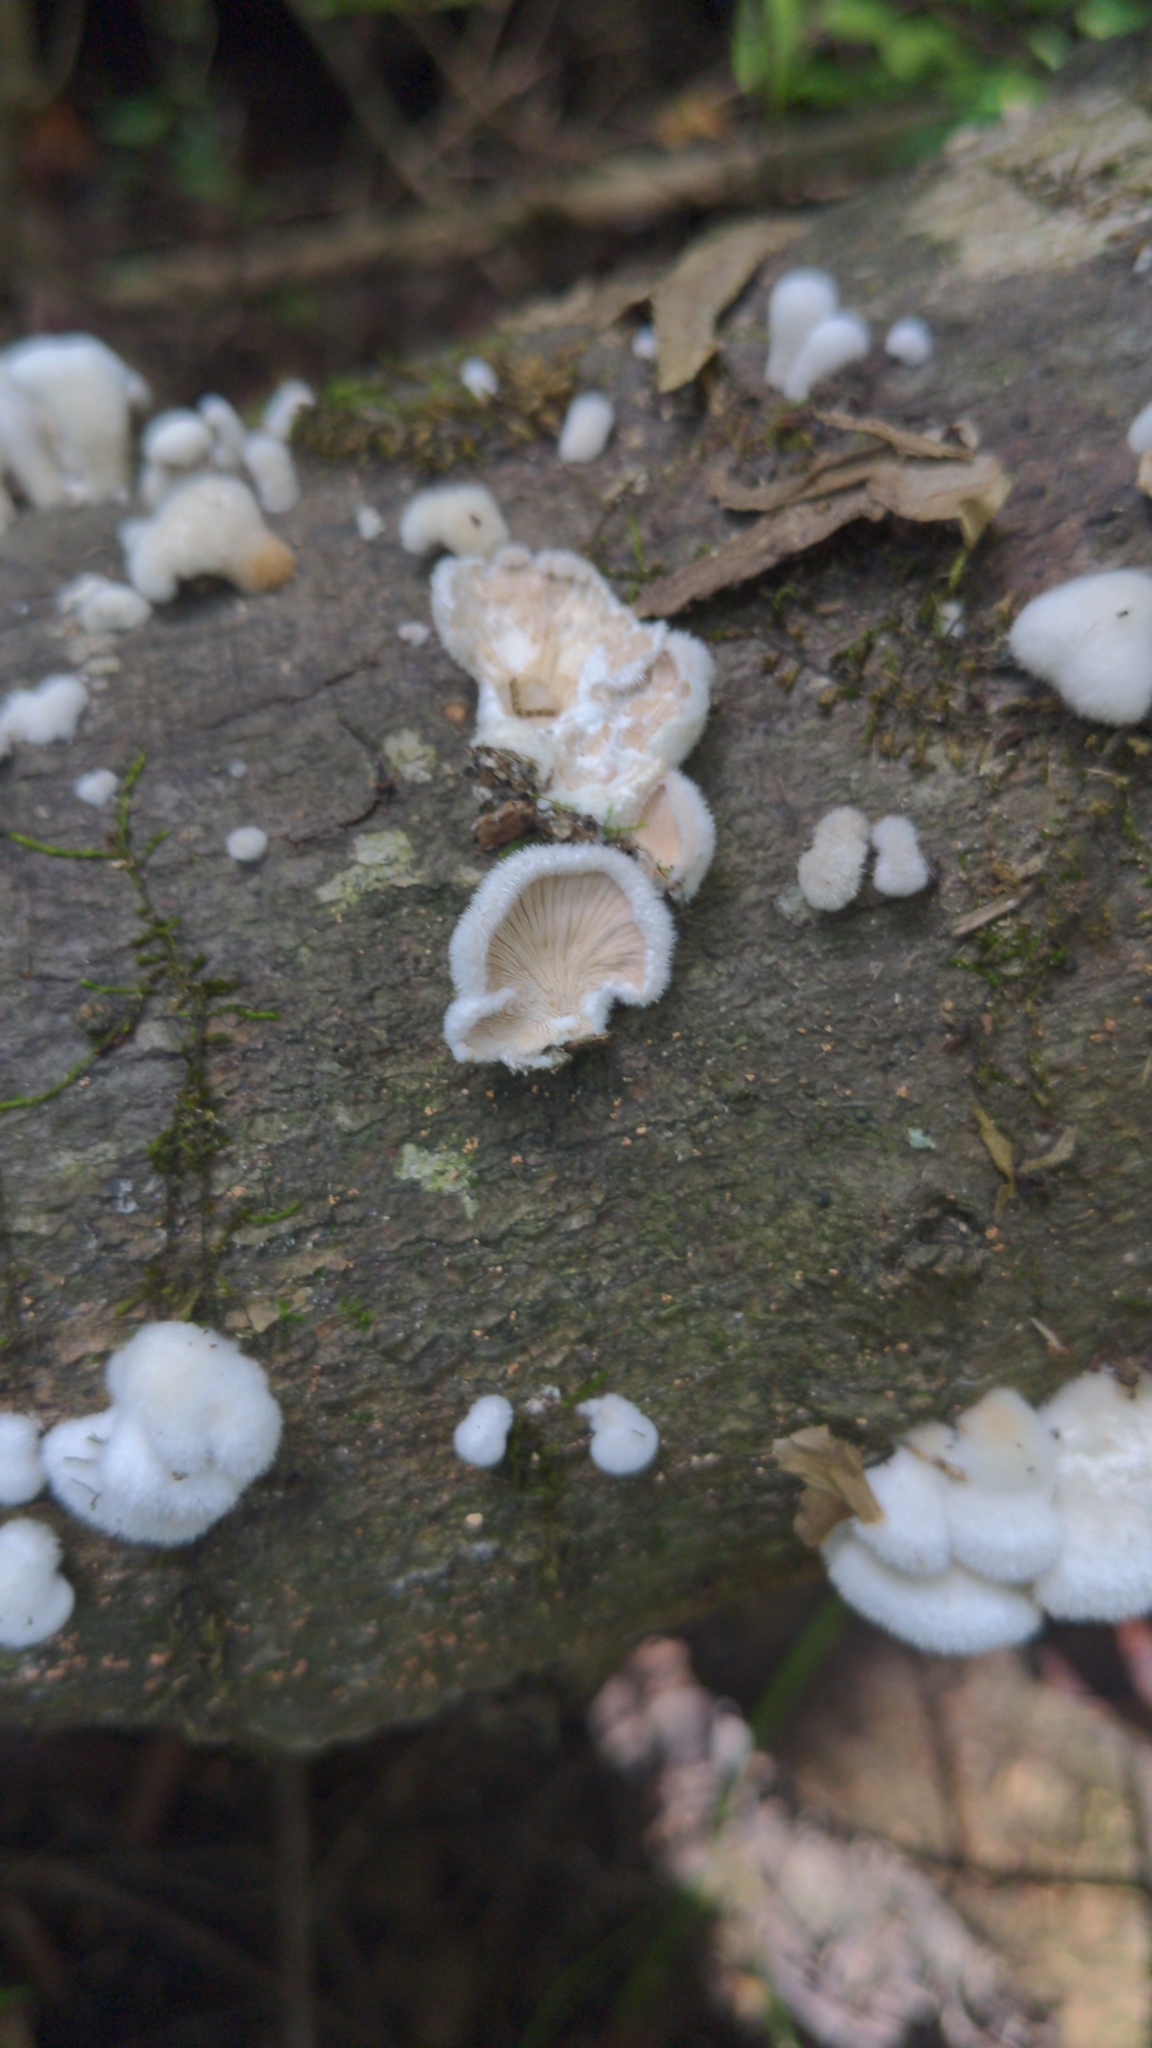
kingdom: Fungi
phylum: Basidiomycota
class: Agaricomycetes
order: Agaricales
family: Schizophyllaceae
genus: Schizophyllum
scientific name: Schizophyllum commune
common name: Common porecrust
